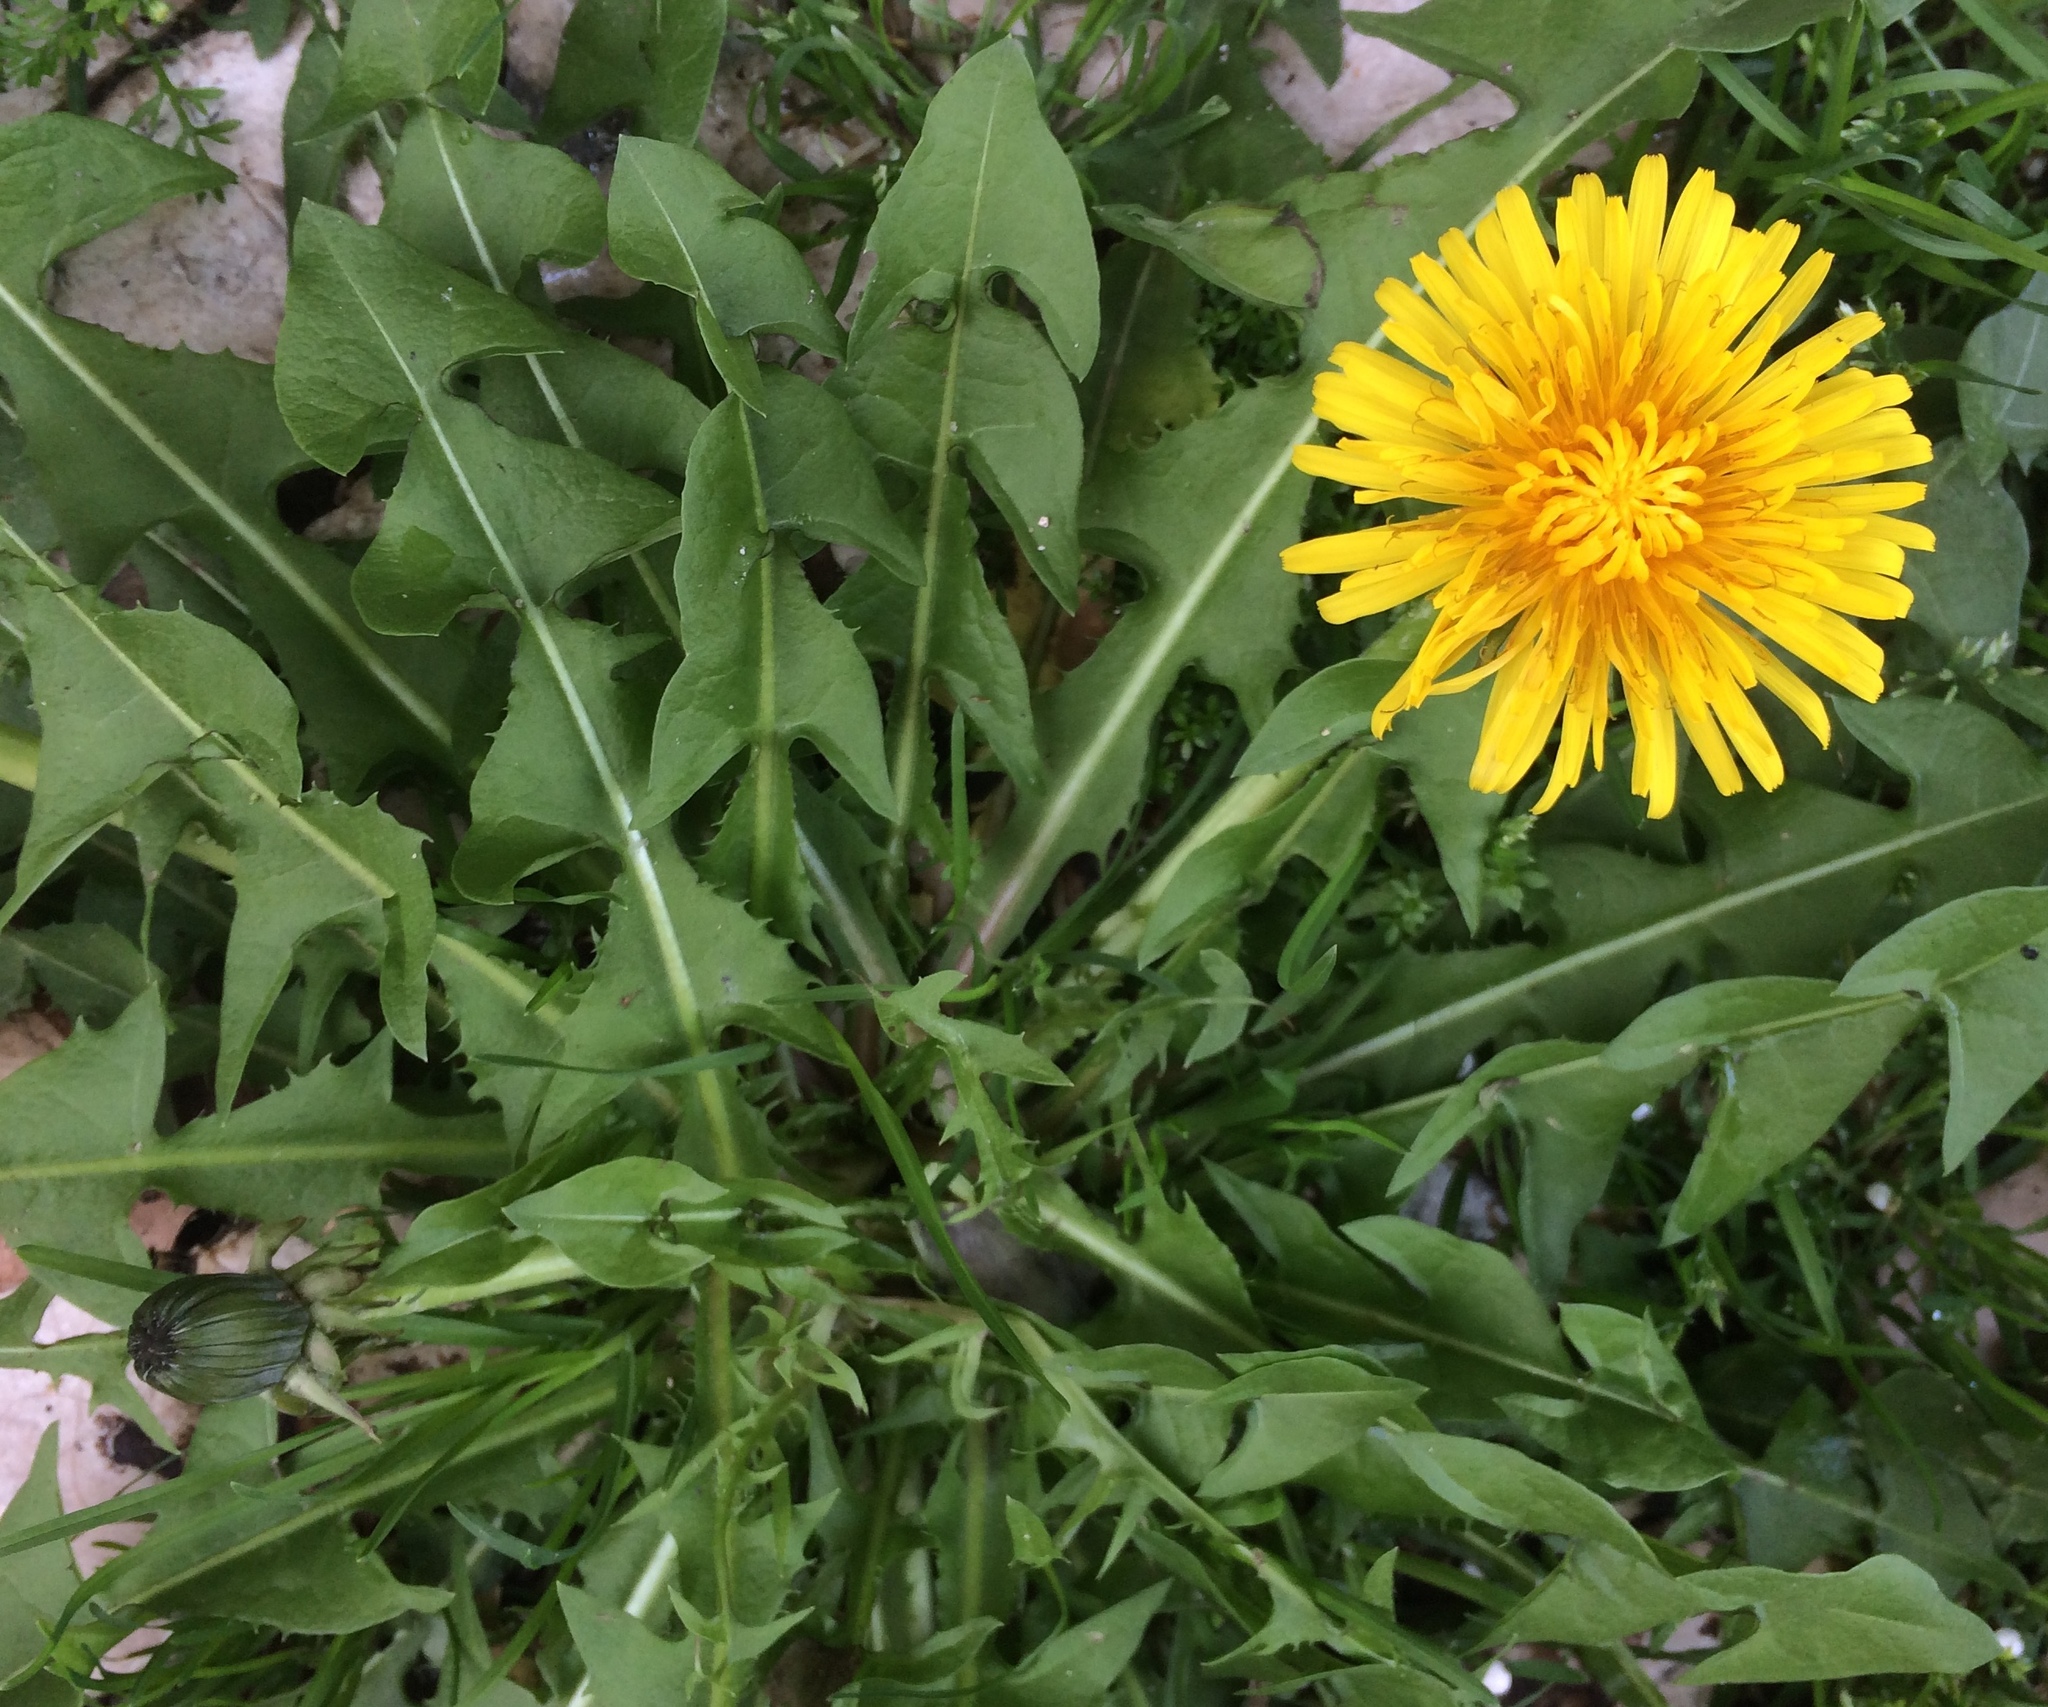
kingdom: Plantae
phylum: Tracheophyta
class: Magnoliopsida
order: Asterales
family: Asteraceae
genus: Taraxacum
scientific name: Taraxacum
